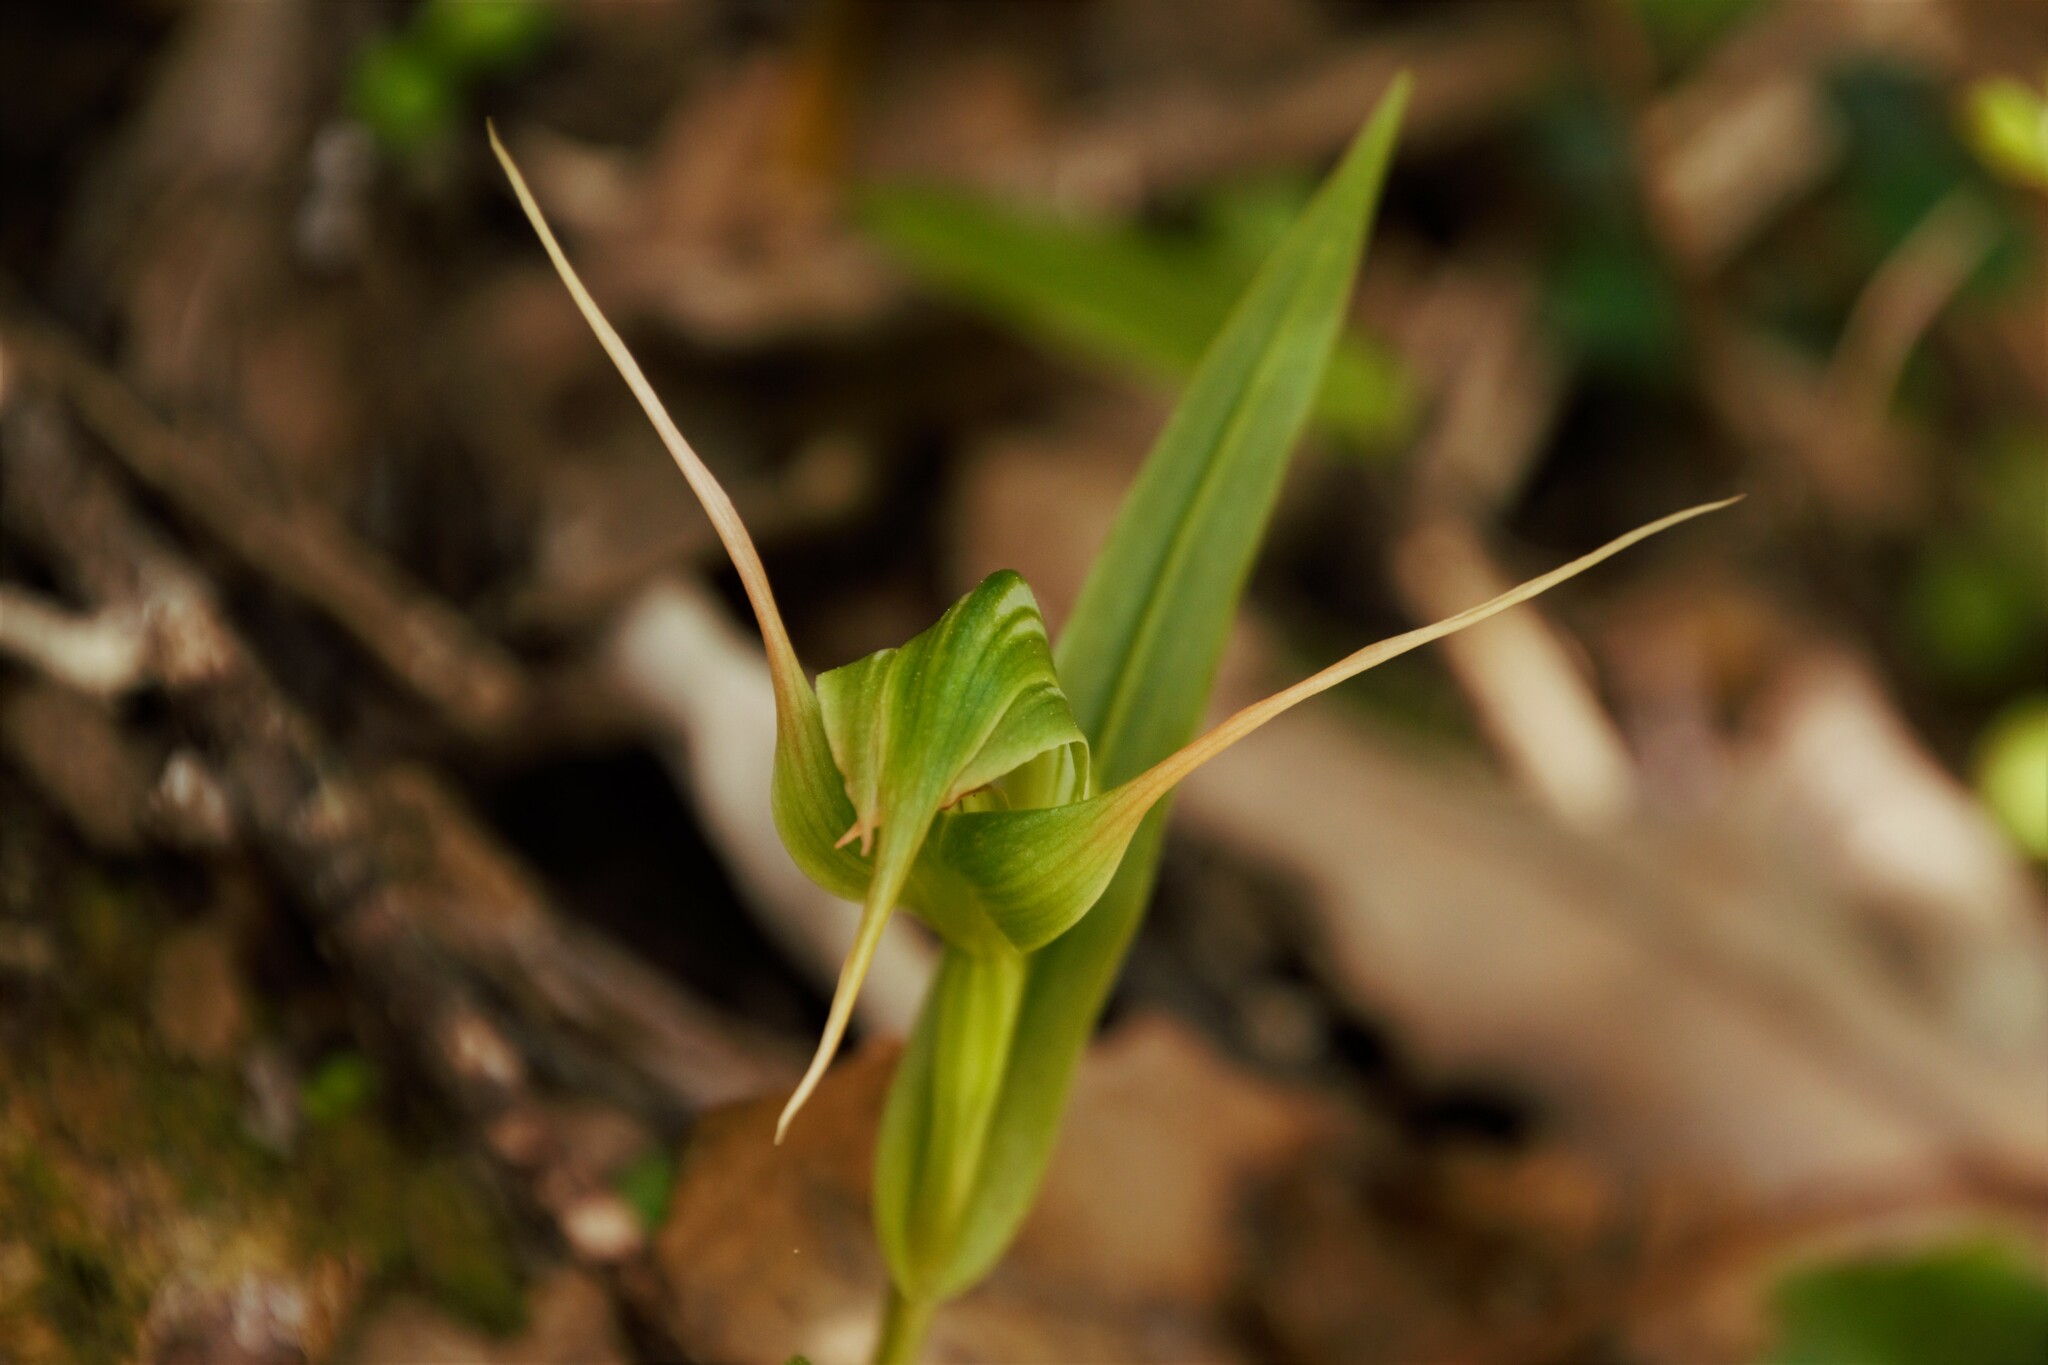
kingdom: Plantae
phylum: Tracheophyta
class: Liliopsida
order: Asparagales
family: Orchidaceae
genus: Pterostylis
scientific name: Pterostylis banksii
